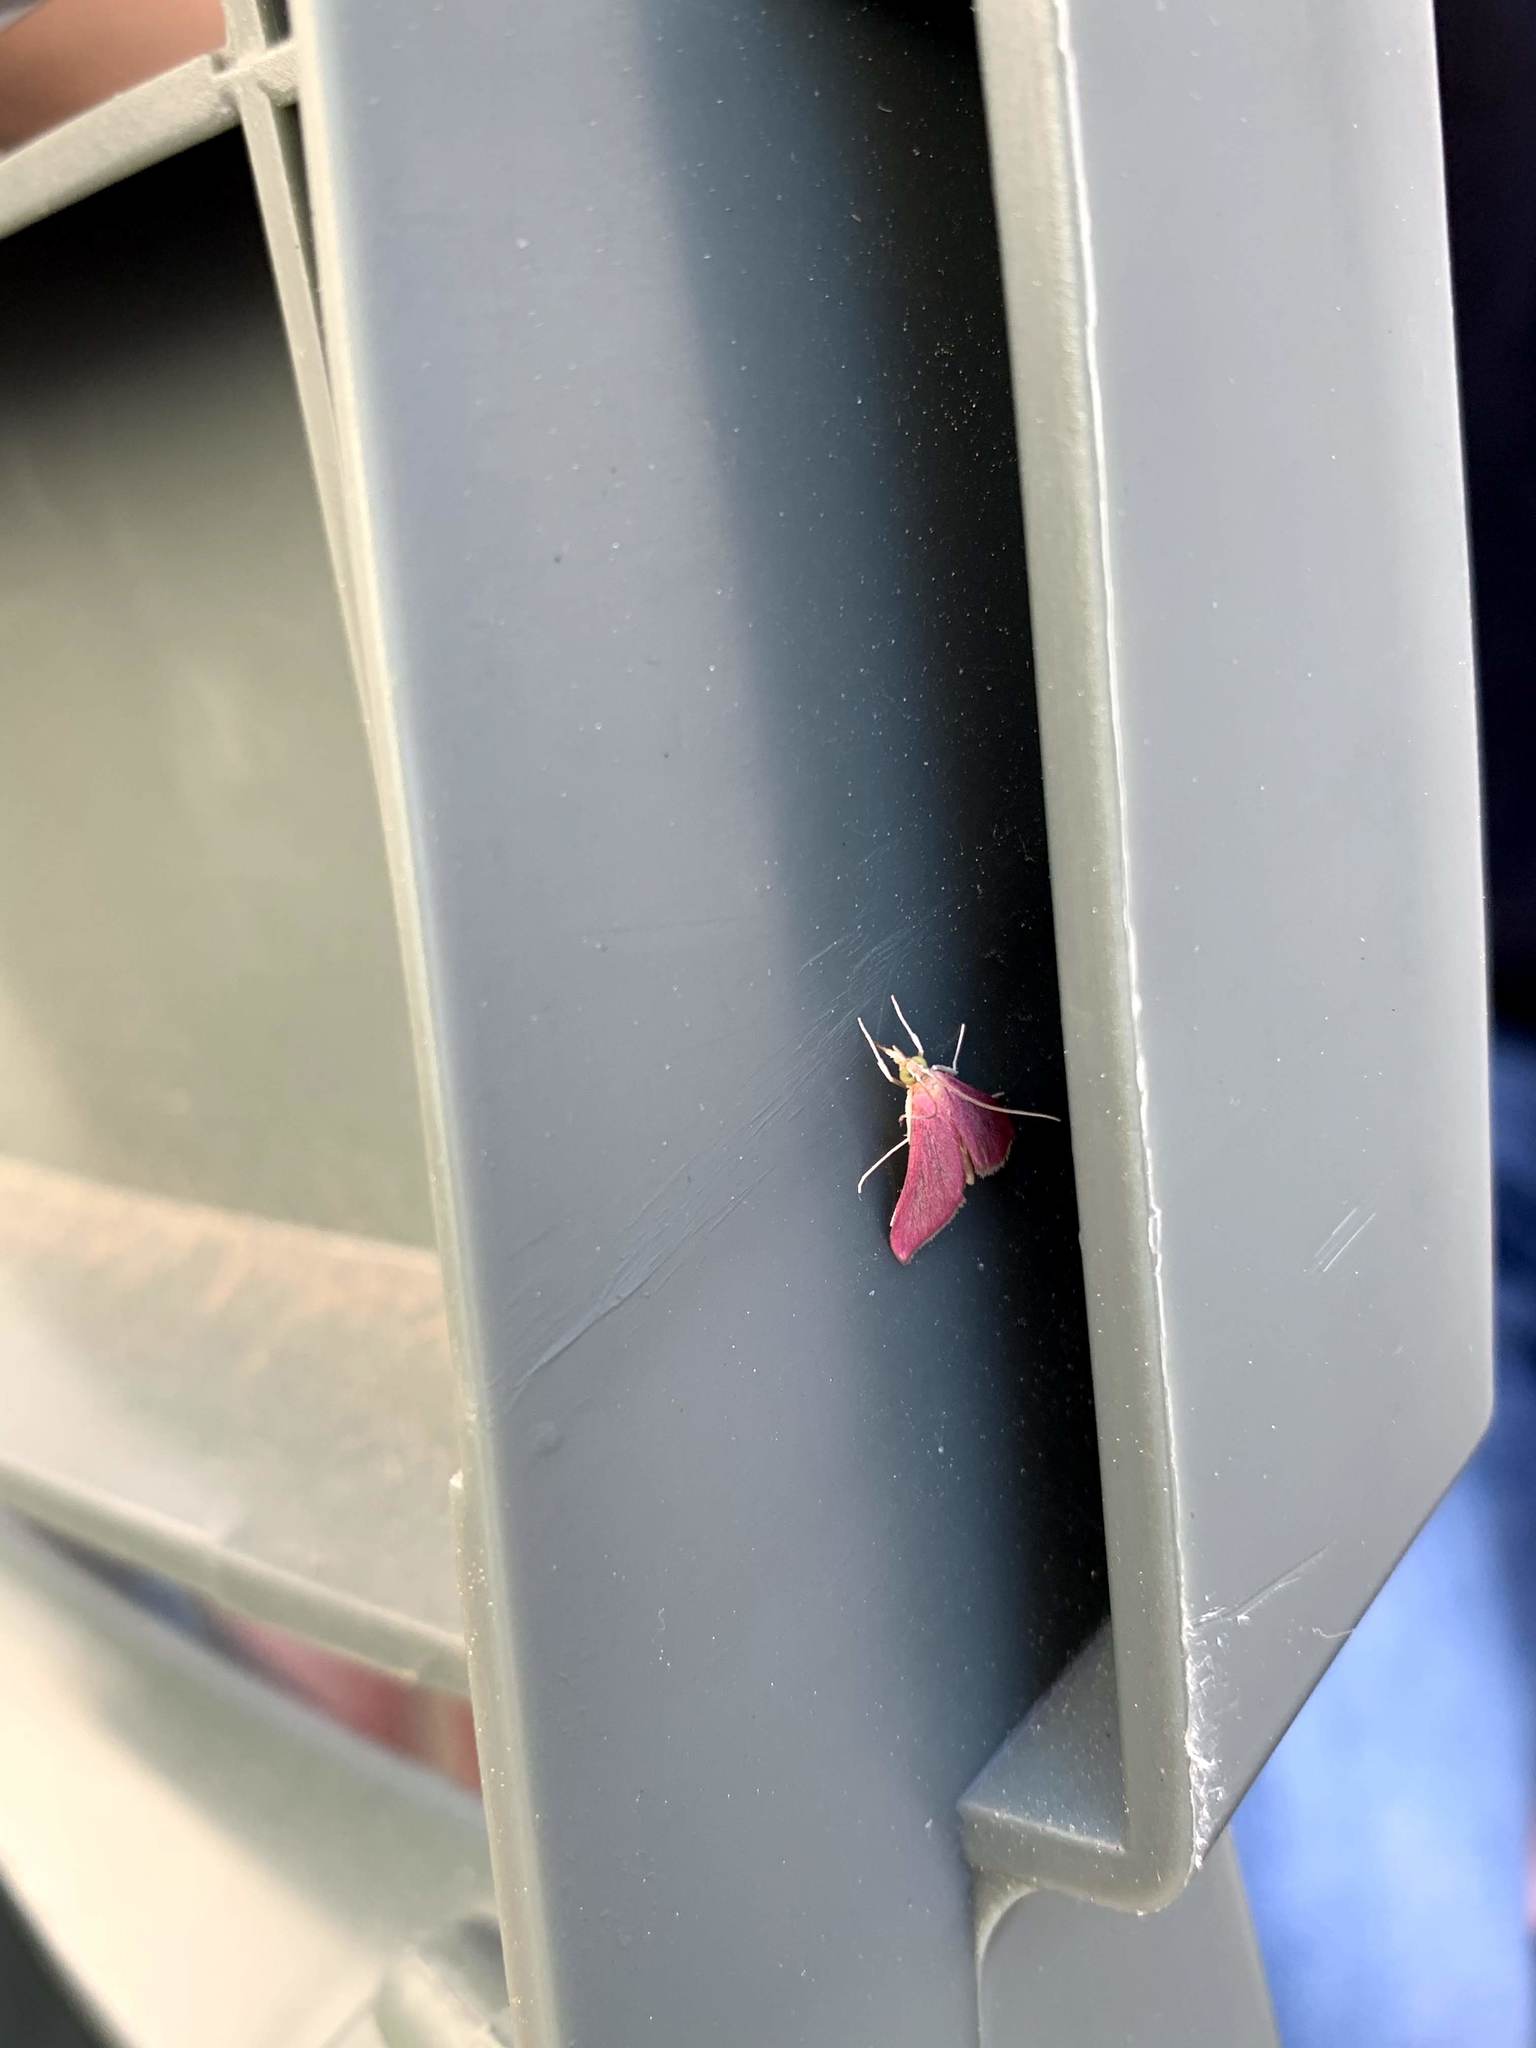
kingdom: Animalia
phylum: Arthropoda
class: Insecta
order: Lepidoptera
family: Crambidae
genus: Pyrausta
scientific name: Pyrausta inornatalis
